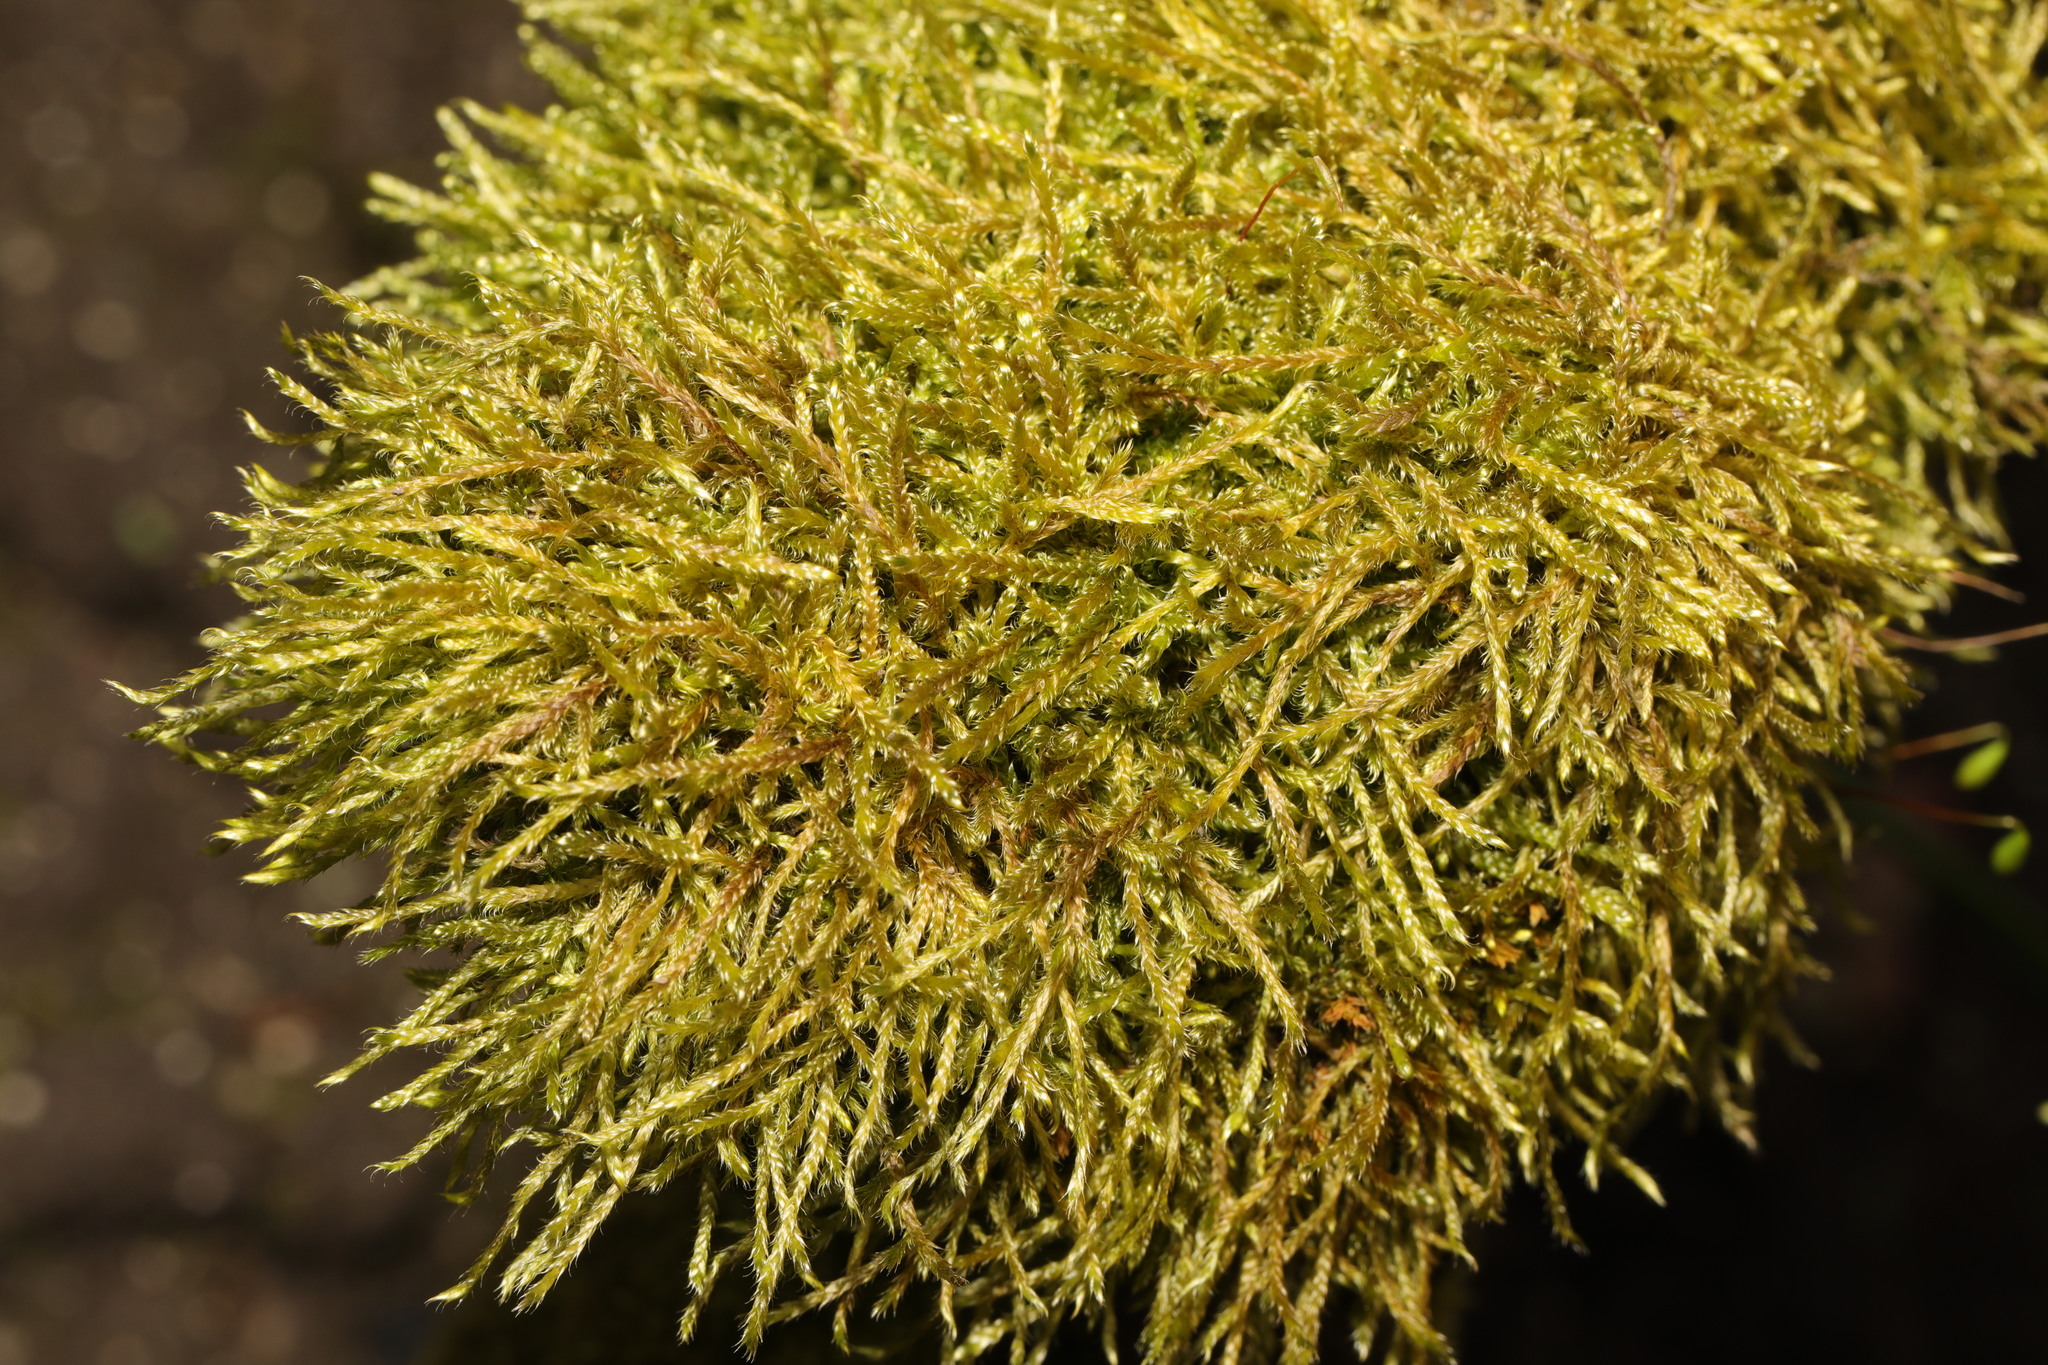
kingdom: Plantae
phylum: Bryophyta
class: Bryopsida
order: Hypnales
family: Hypnaceae
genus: Hypnum
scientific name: Hypnum cupressiforme
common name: Cypress-leaved plait-moss
